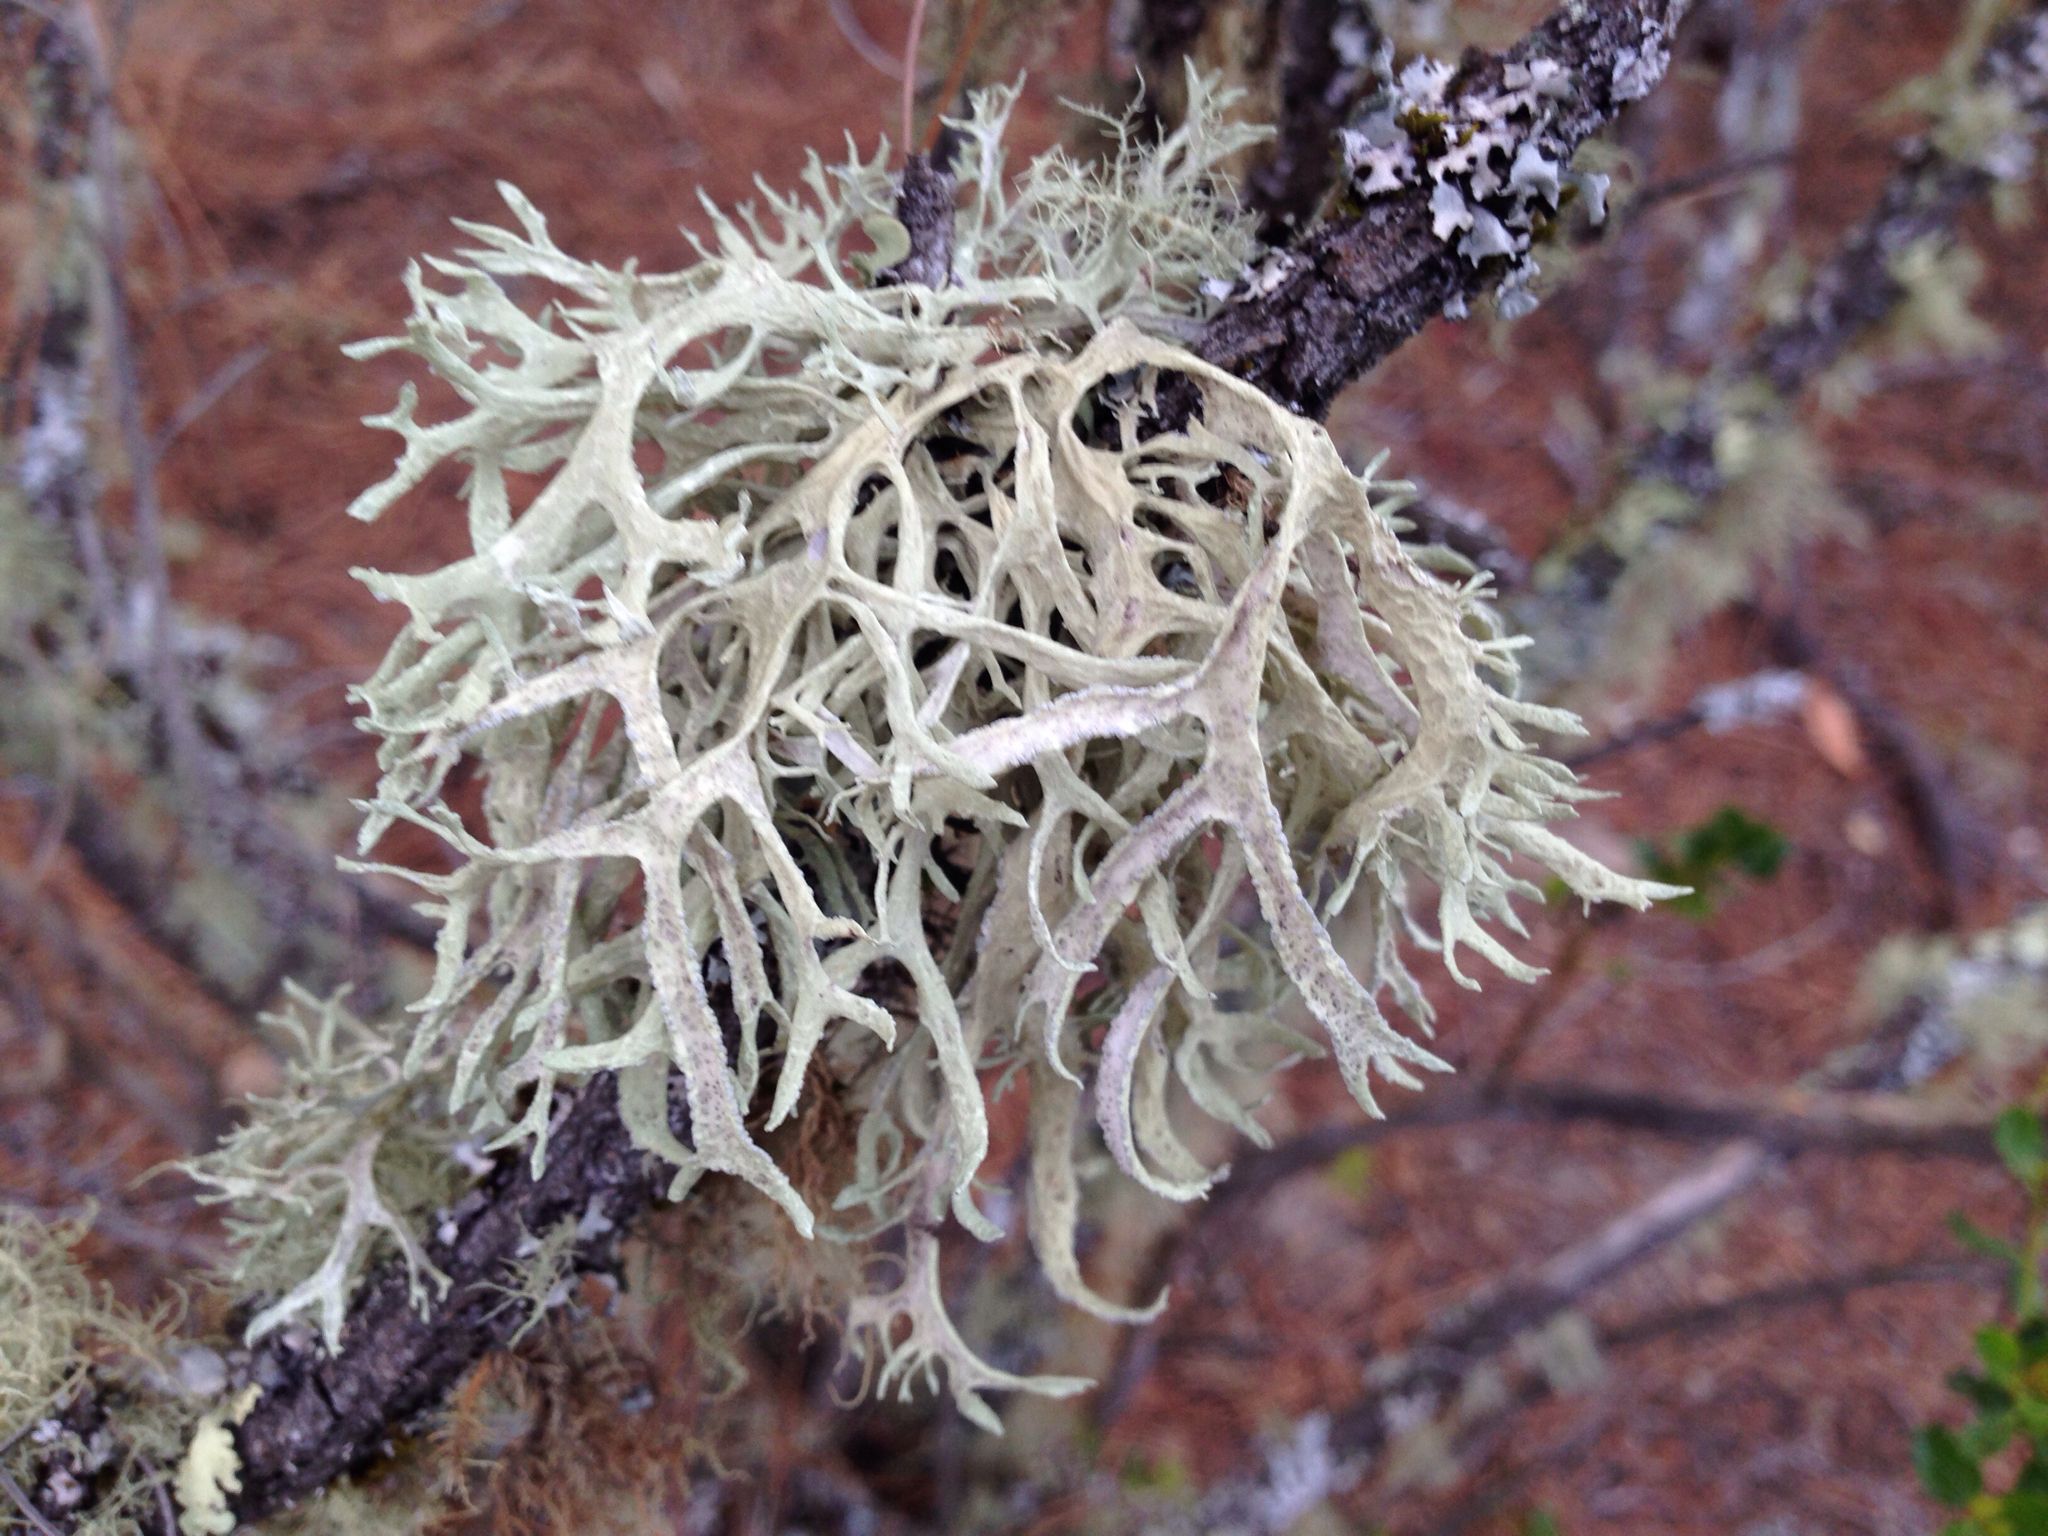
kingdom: Fungi
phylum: Ascomycota
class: Lecanoromycetes
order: Lecanorales
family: Parmeliaceae
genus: Evernia
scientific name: Evernia prunastri
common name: Oak moss
